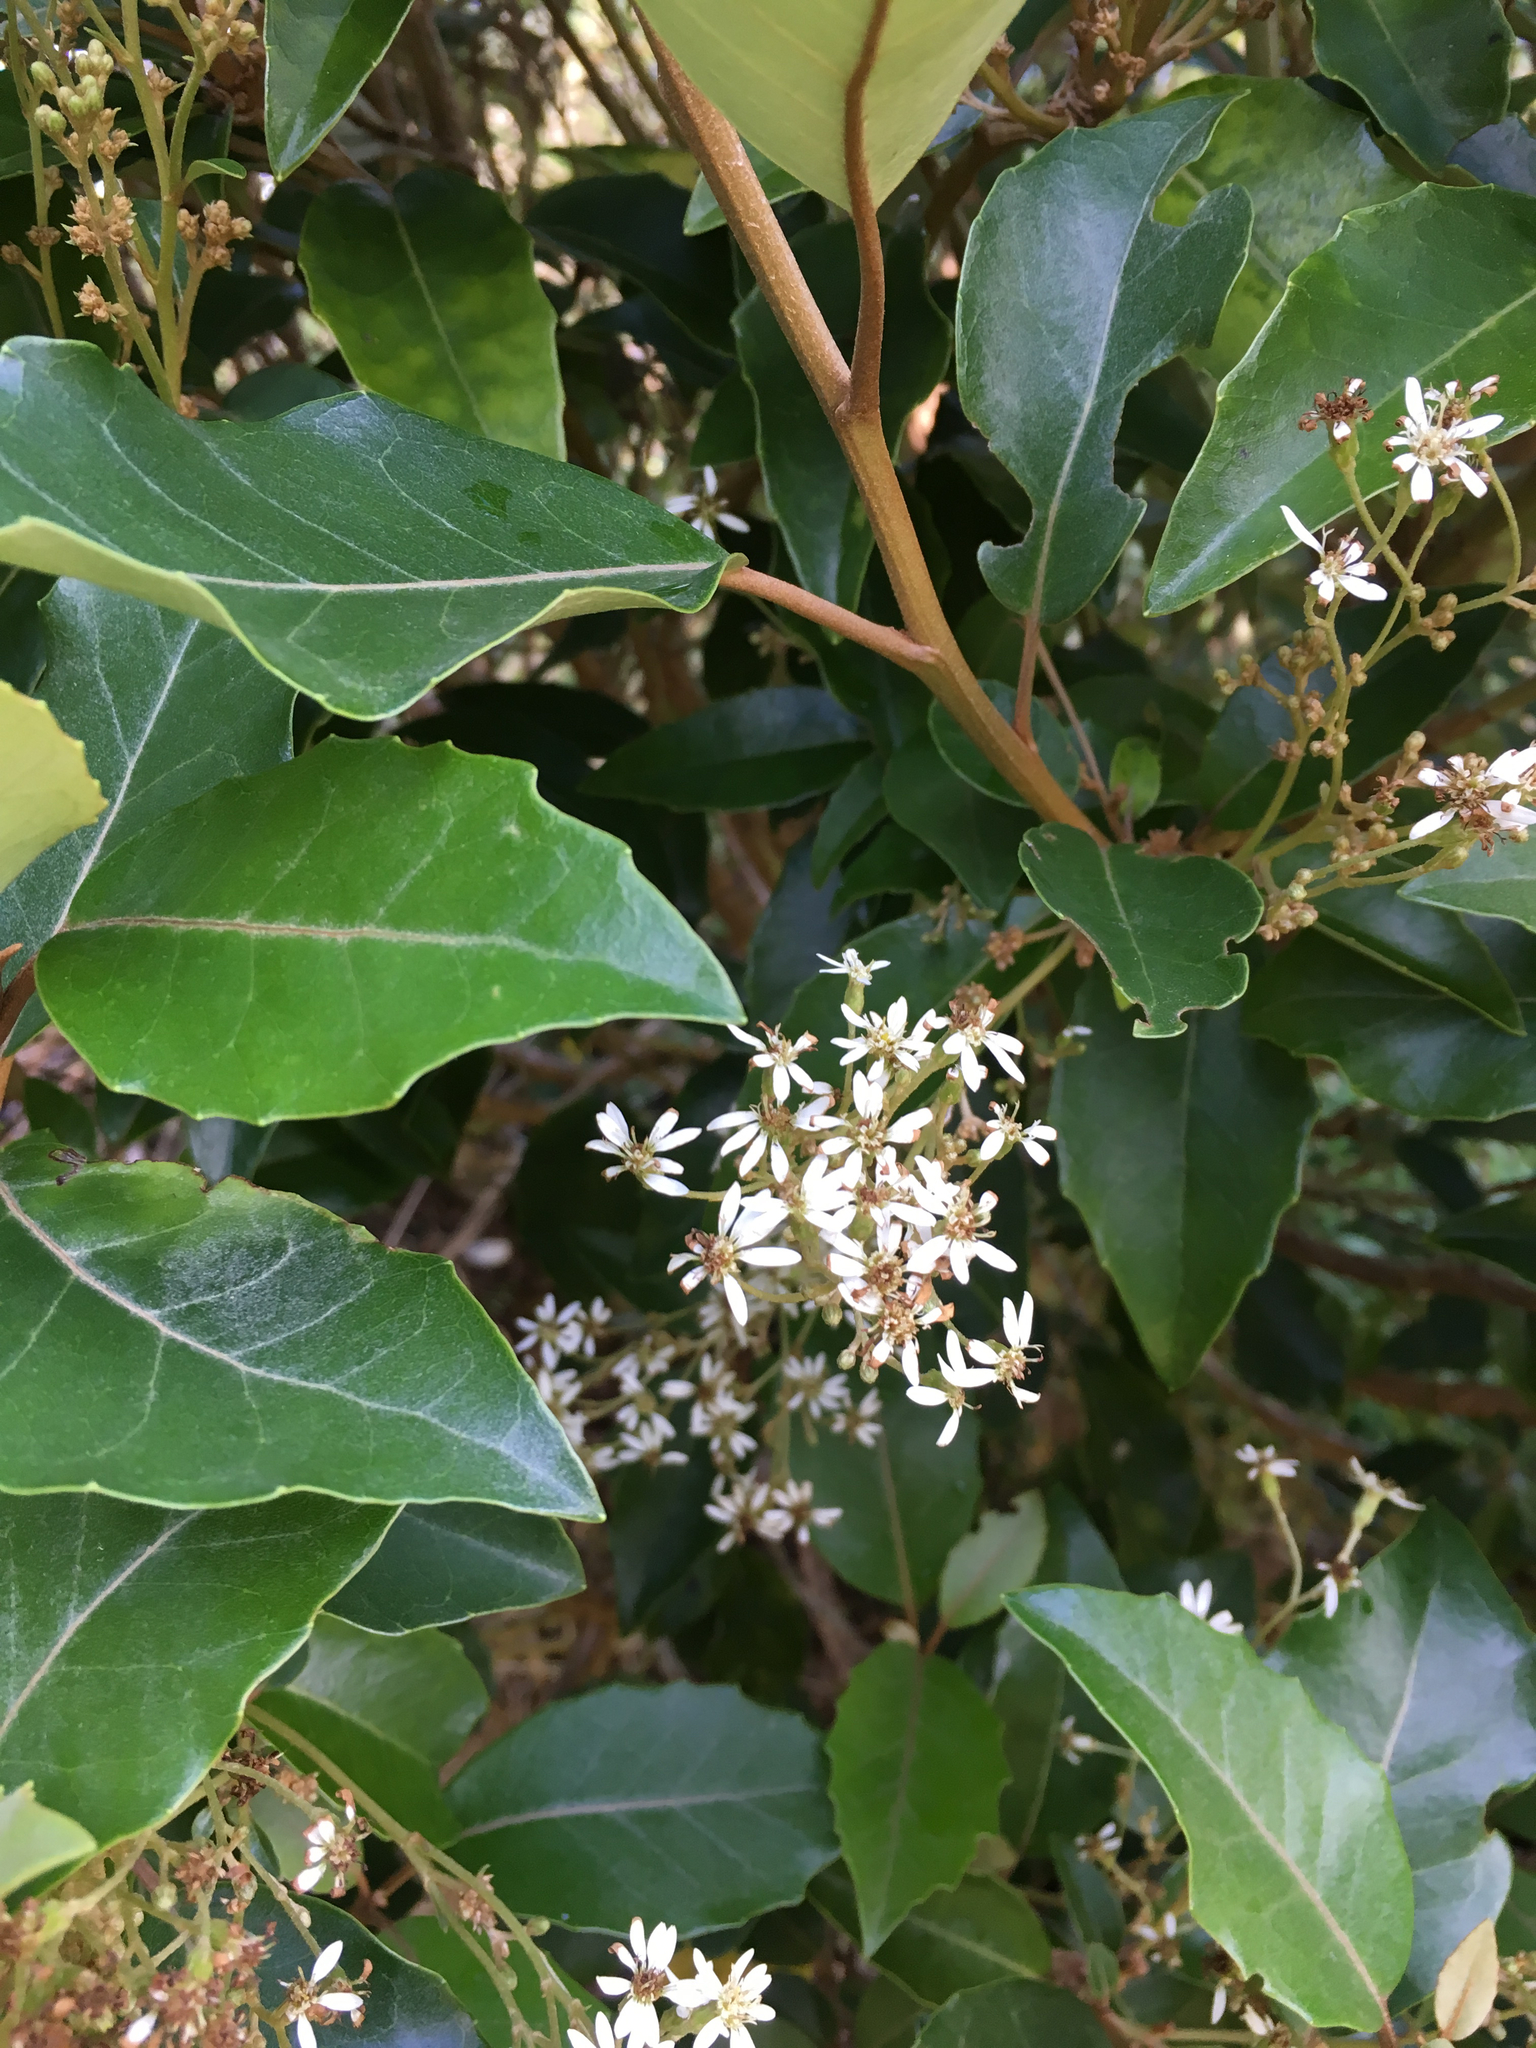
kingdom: Plantae
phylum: Tracheophyta
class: Magnoliopsida
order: Asterales
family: Asteraceae
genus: Olearia
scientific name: Olearia arborescens
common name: Glossy tree daisy
